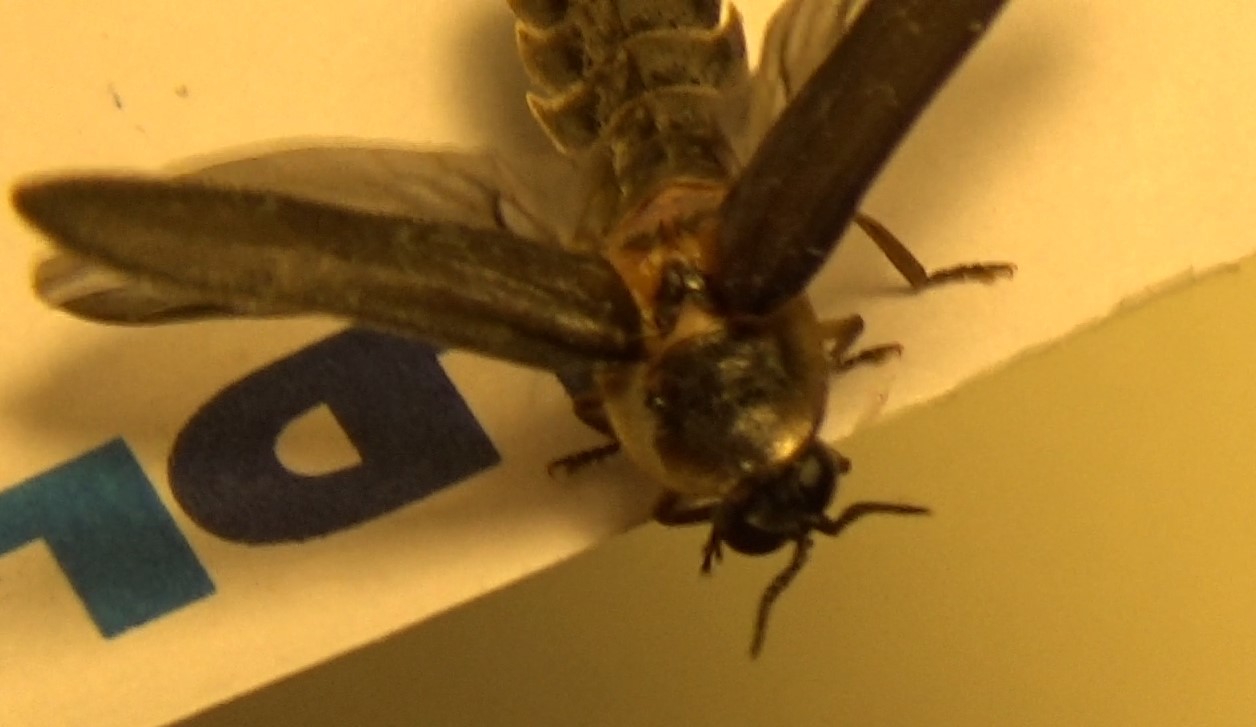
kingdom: Animalia
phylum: Arthropoda
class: Insecta
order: Coleoptera
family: Lampyridae
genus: Lampyris
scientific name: Lampyris noctiluca
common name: Glow-worm
